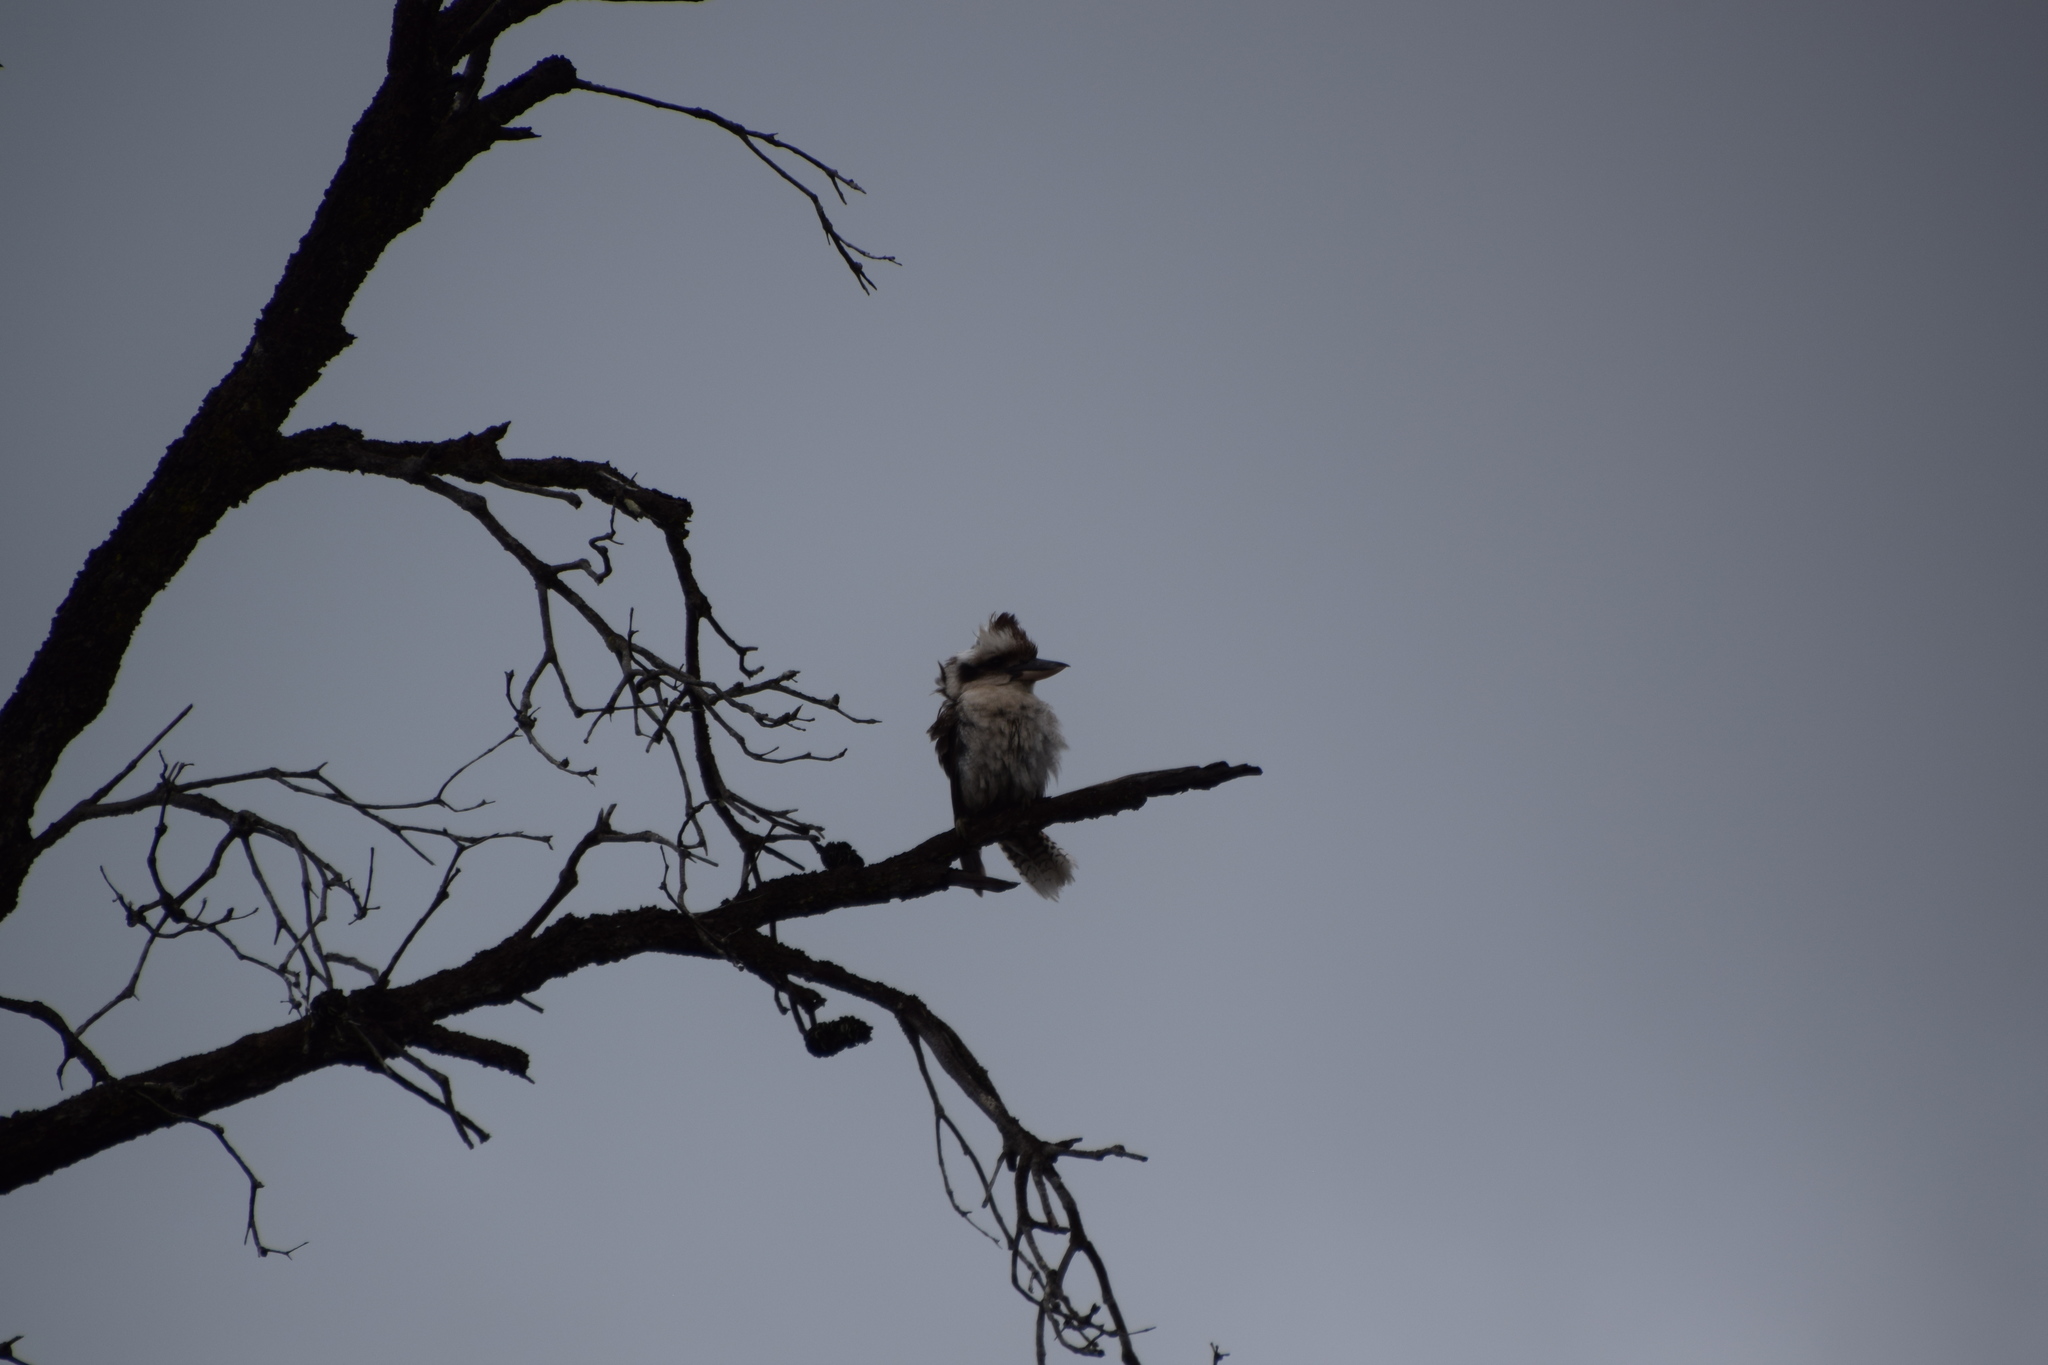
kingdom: Animalia
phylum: Chordata
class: Aves
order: Coraciiformes
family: Alcedinidae
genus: Dacelo
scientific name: Dacelo novaeguineae
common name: Laughing kookaburra
